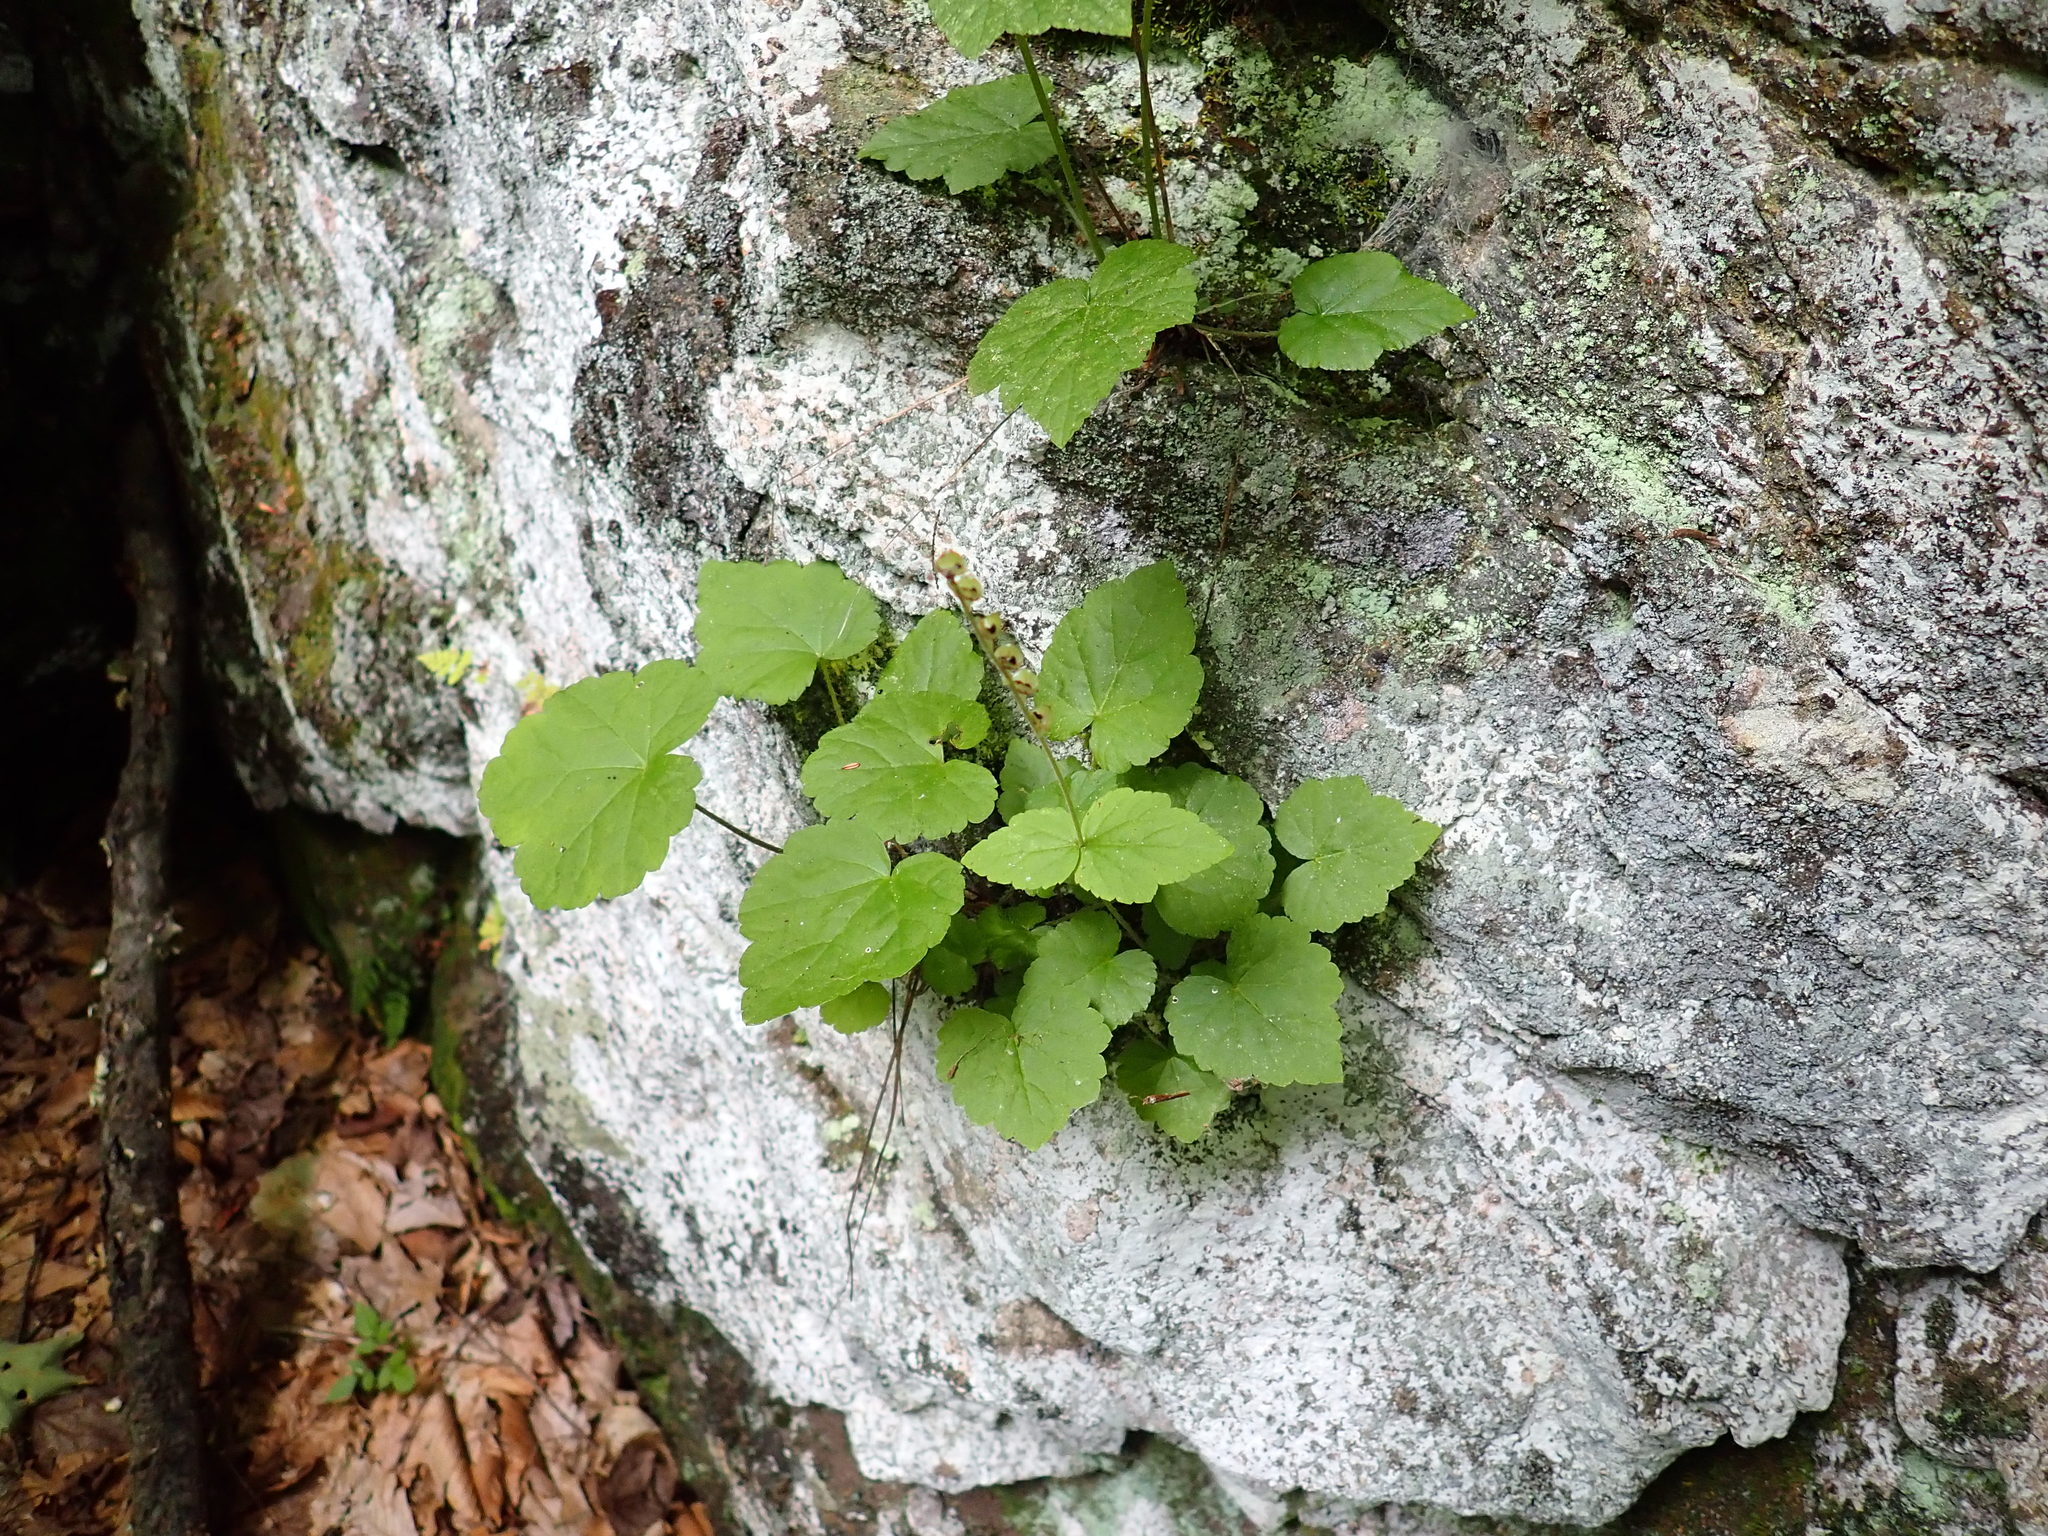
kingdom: Plantae
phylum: Tracheophyta
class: Magnoliopsida
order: Saxifragales
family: Saxifragaceae
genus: Mitella
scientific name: Mitella diphylla
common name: Coolwort
